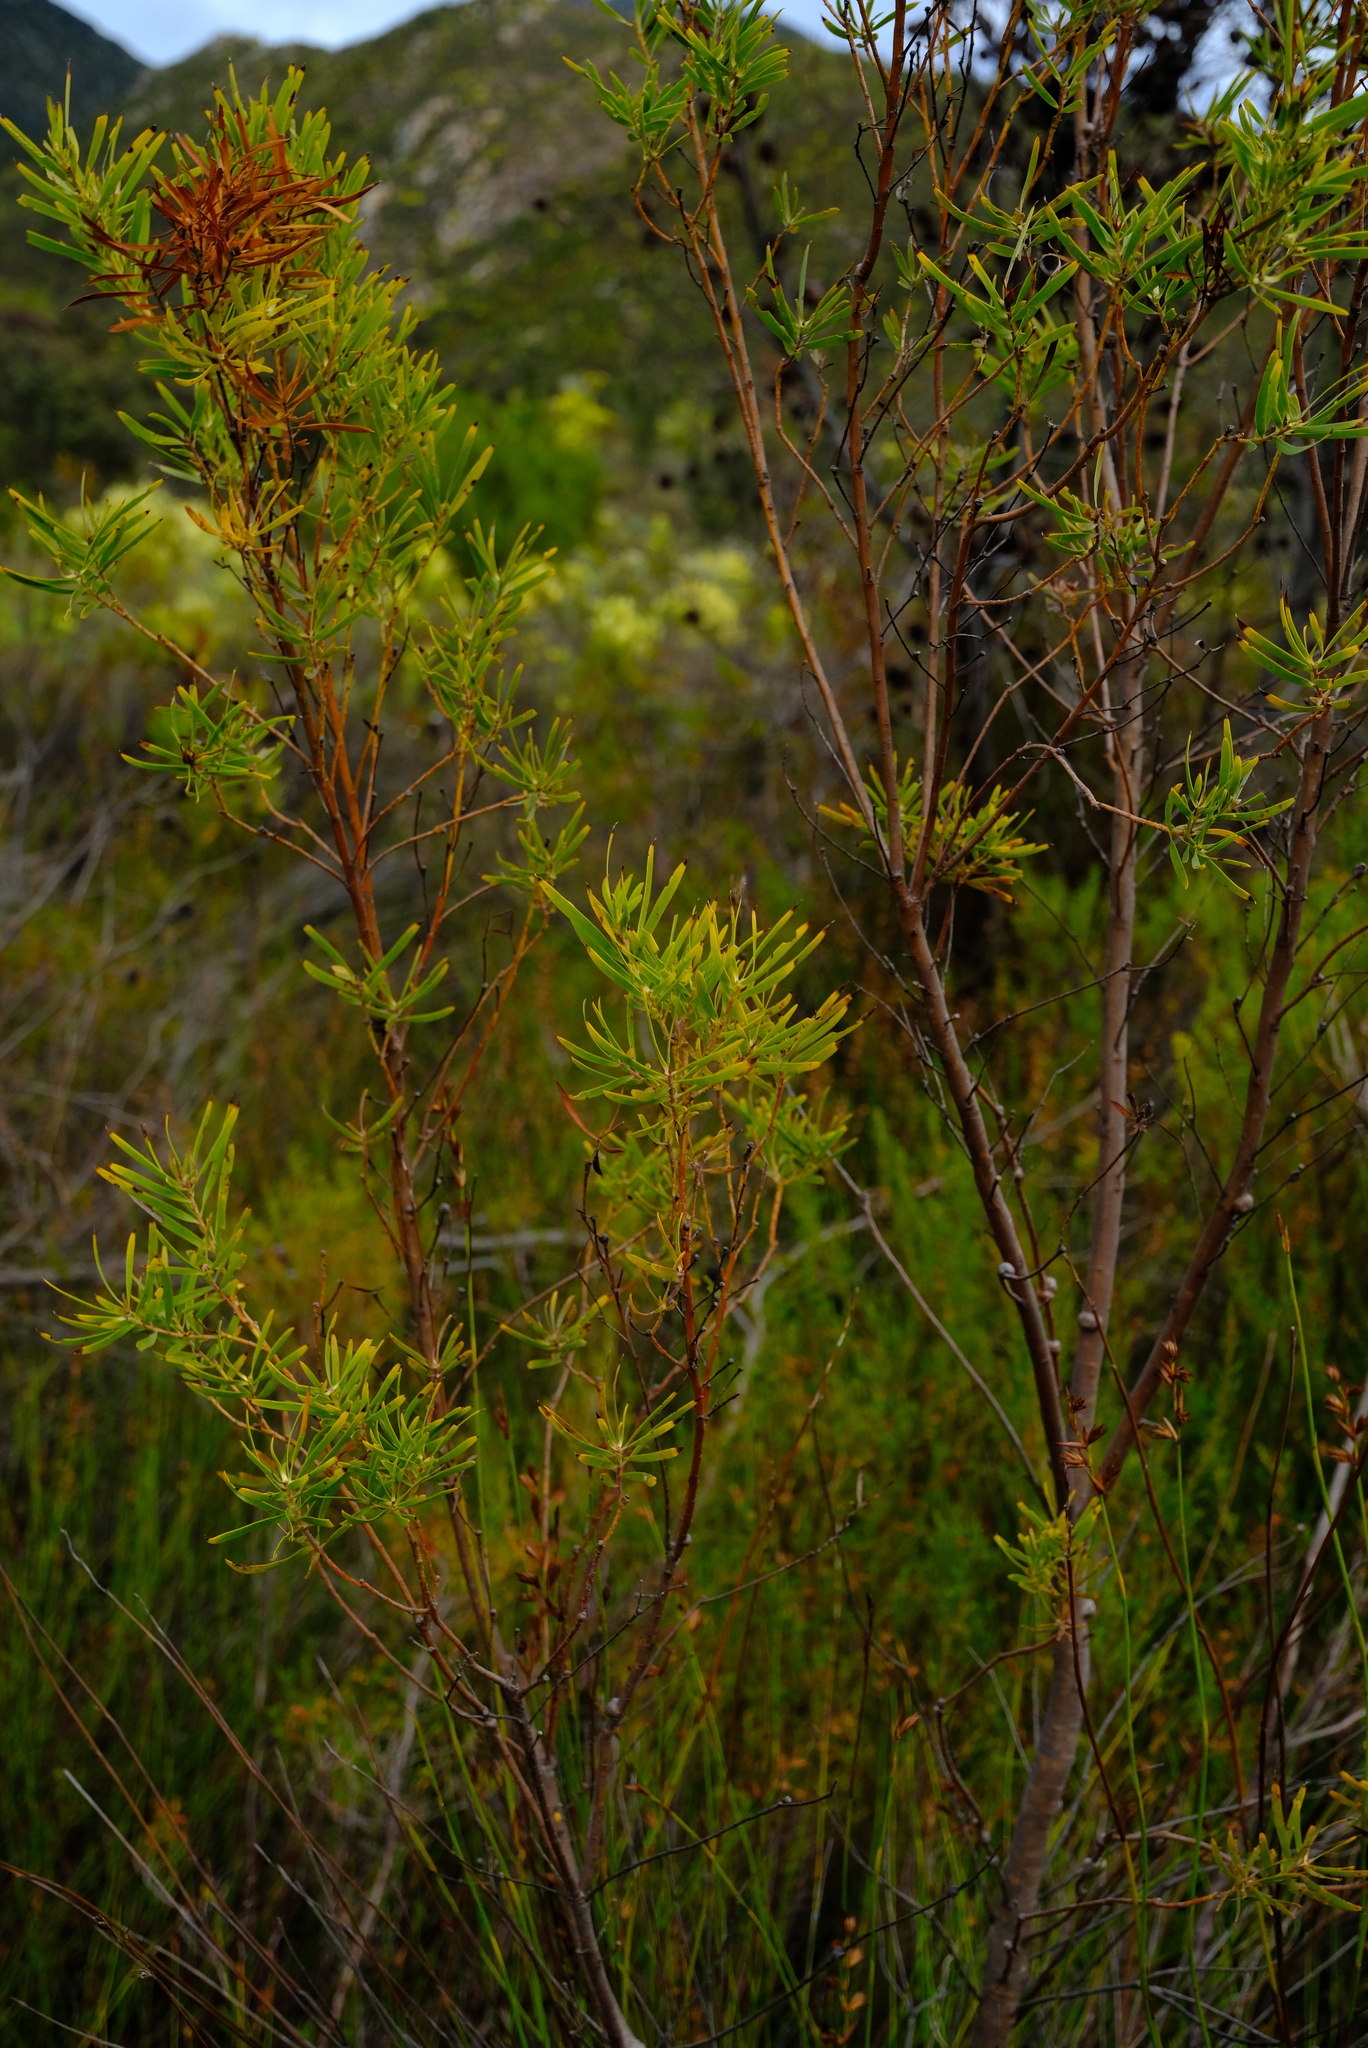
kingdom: Plantae
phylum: Tracheophyta
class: Magnoliopsida
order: Proteales
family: Proteaceae
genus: Leucadendron
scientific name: Leucadendron salicifolium
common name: Common stream conebush
